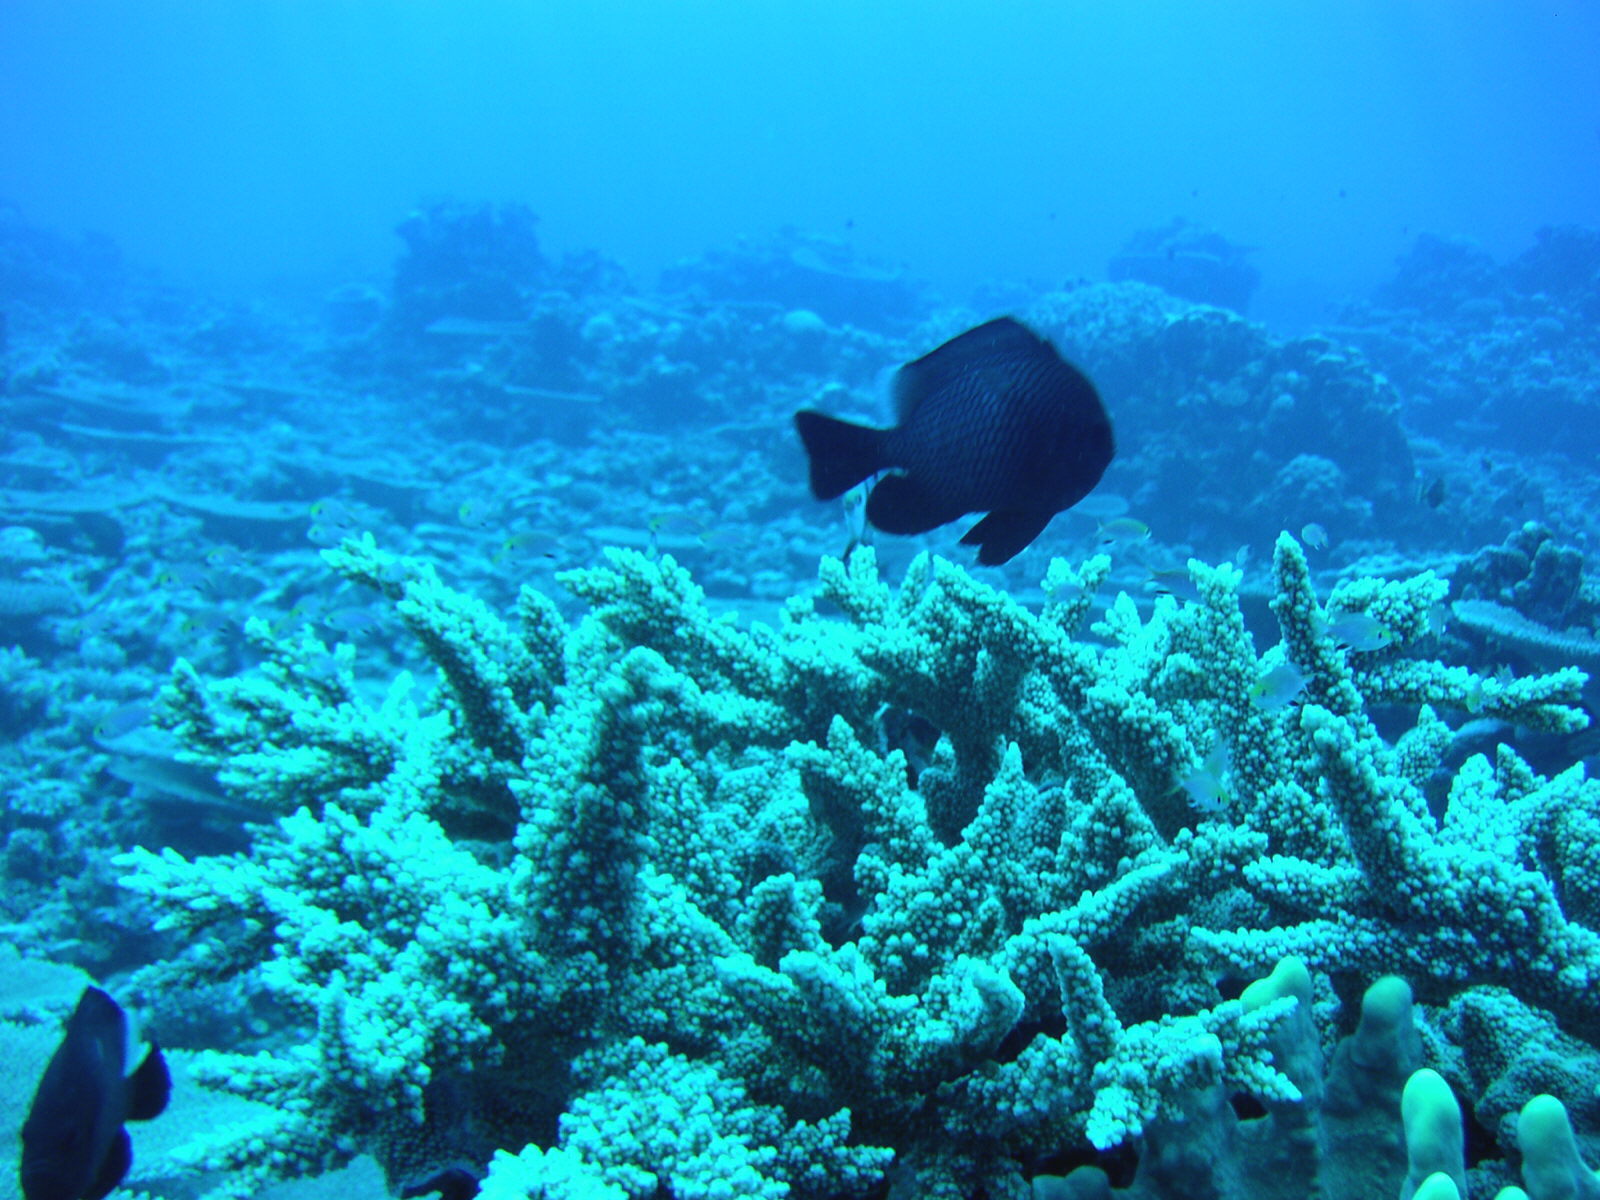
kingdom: Animalia
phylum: Chordata
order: Perciformes
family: Pomacentridae
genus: Dascyllus
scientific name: Dascyllus trimaculatus
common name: Threespot dascyllus
